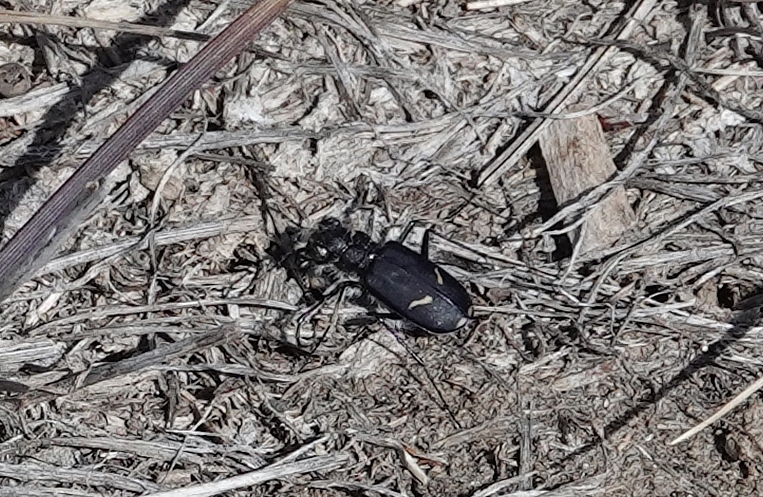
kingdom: Animalia
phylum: Arthropoda
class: Insecta
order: Coleoptera
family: Carabidae
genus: Cicindela
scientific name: Cicindela purpurea
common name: Cow path tiger beetle
